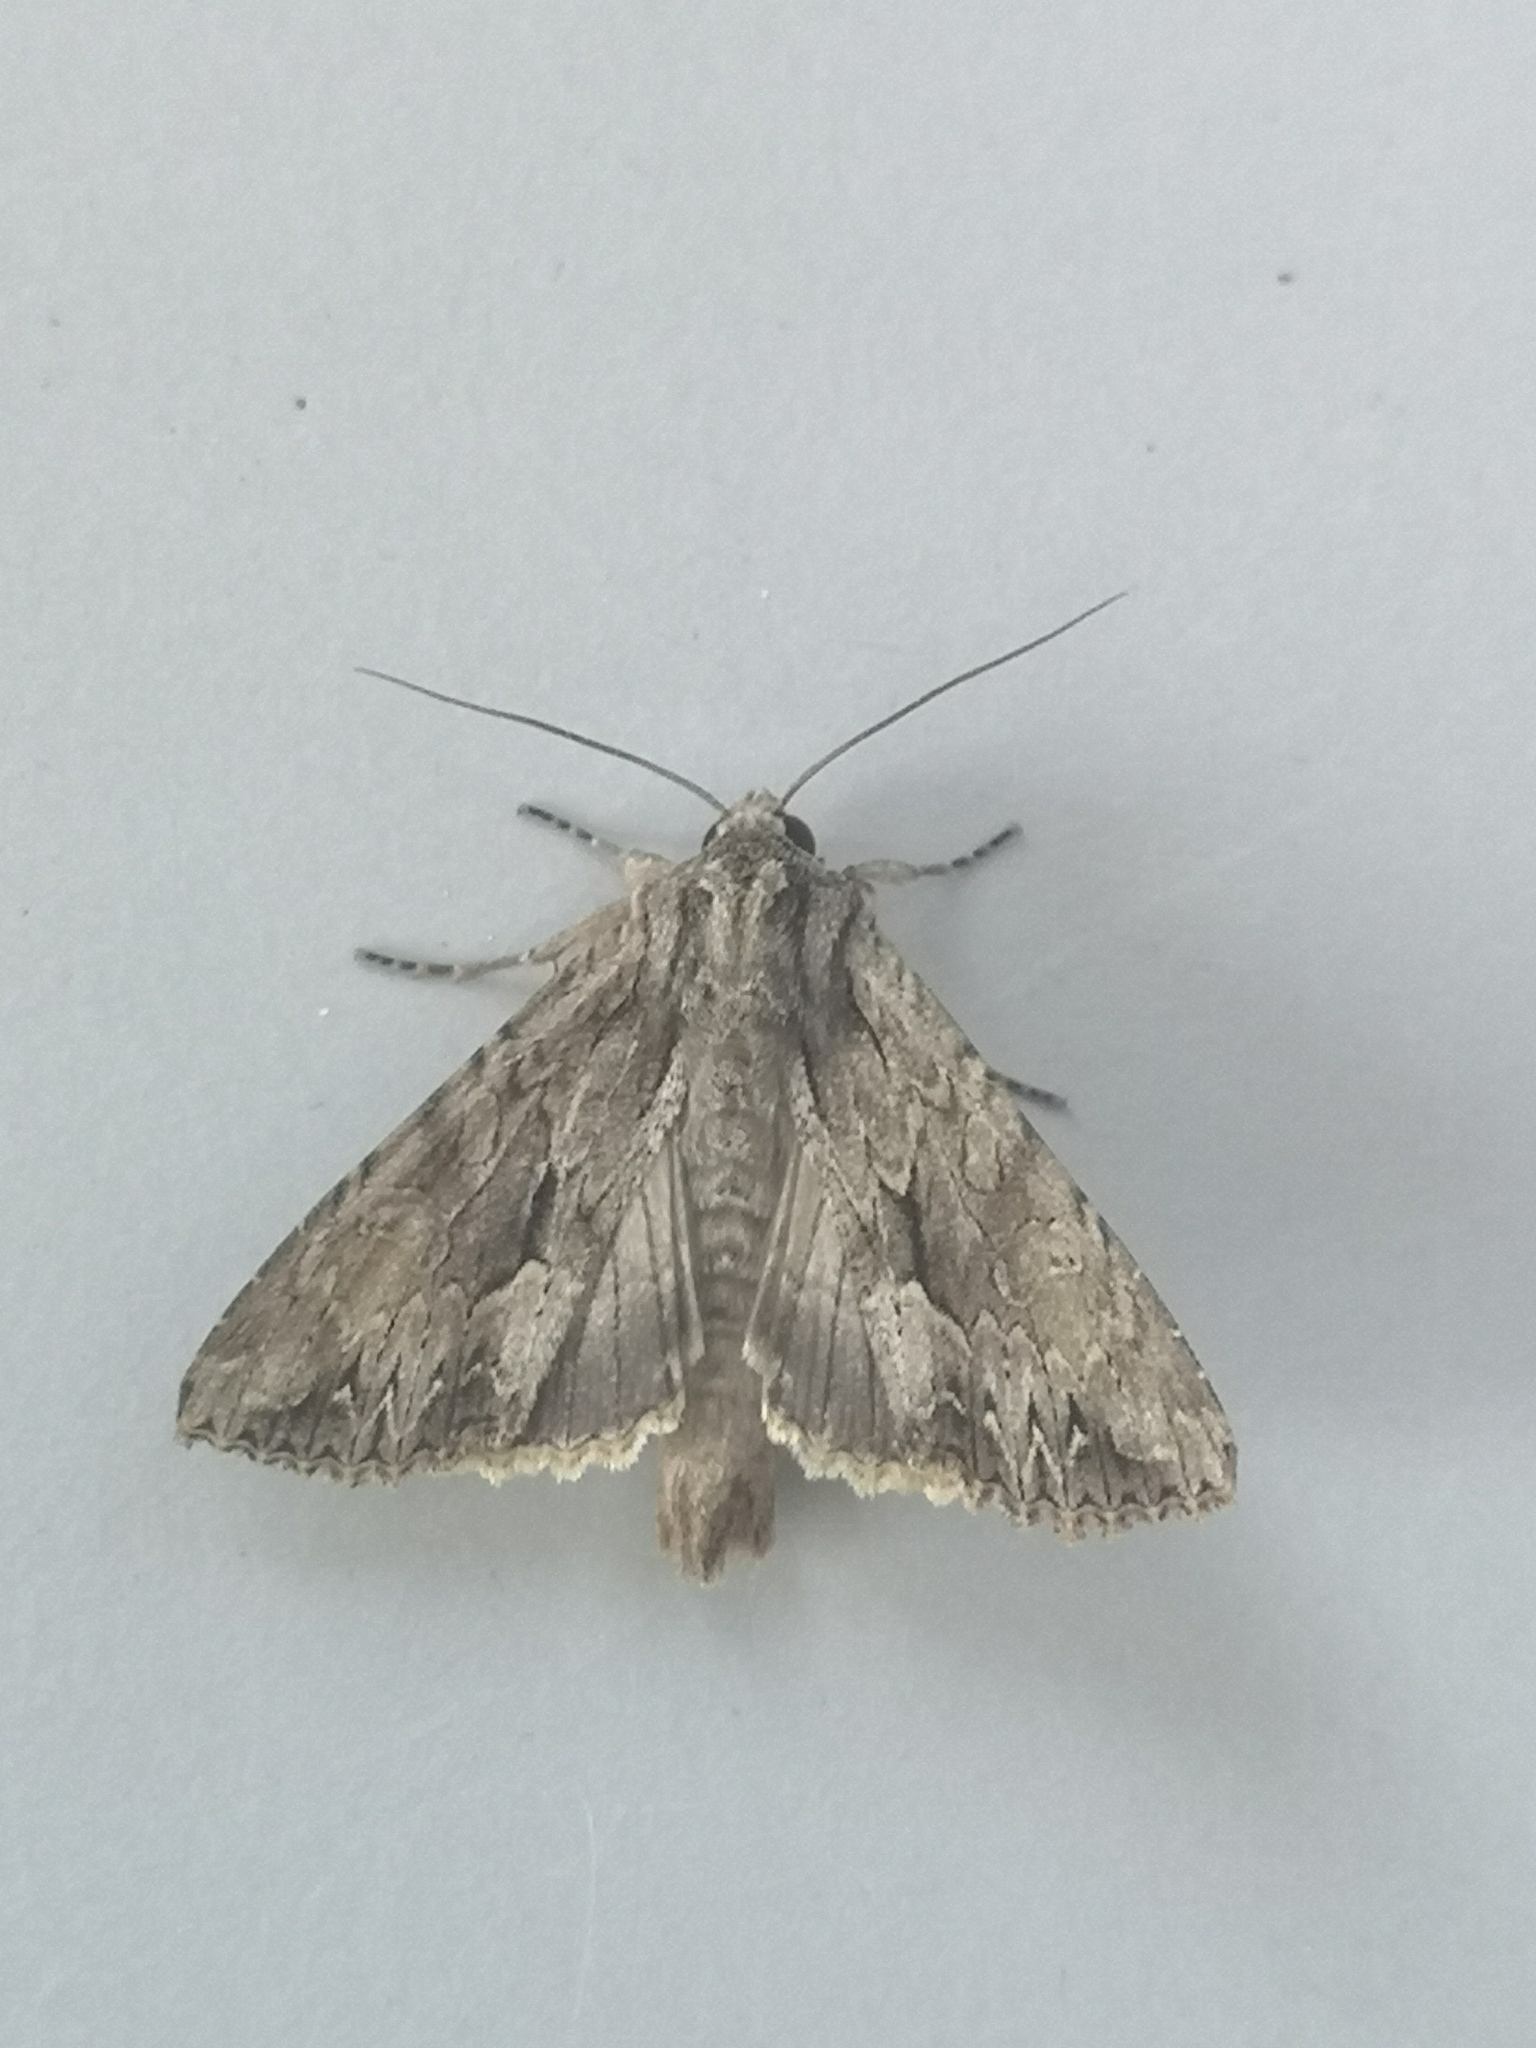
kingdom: Animalia
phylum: Arthropoda
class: Insecta
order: Lepidoptera
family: Noctuidae
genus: Apamea
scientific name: Apamea monoglypha
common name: Dark arches
